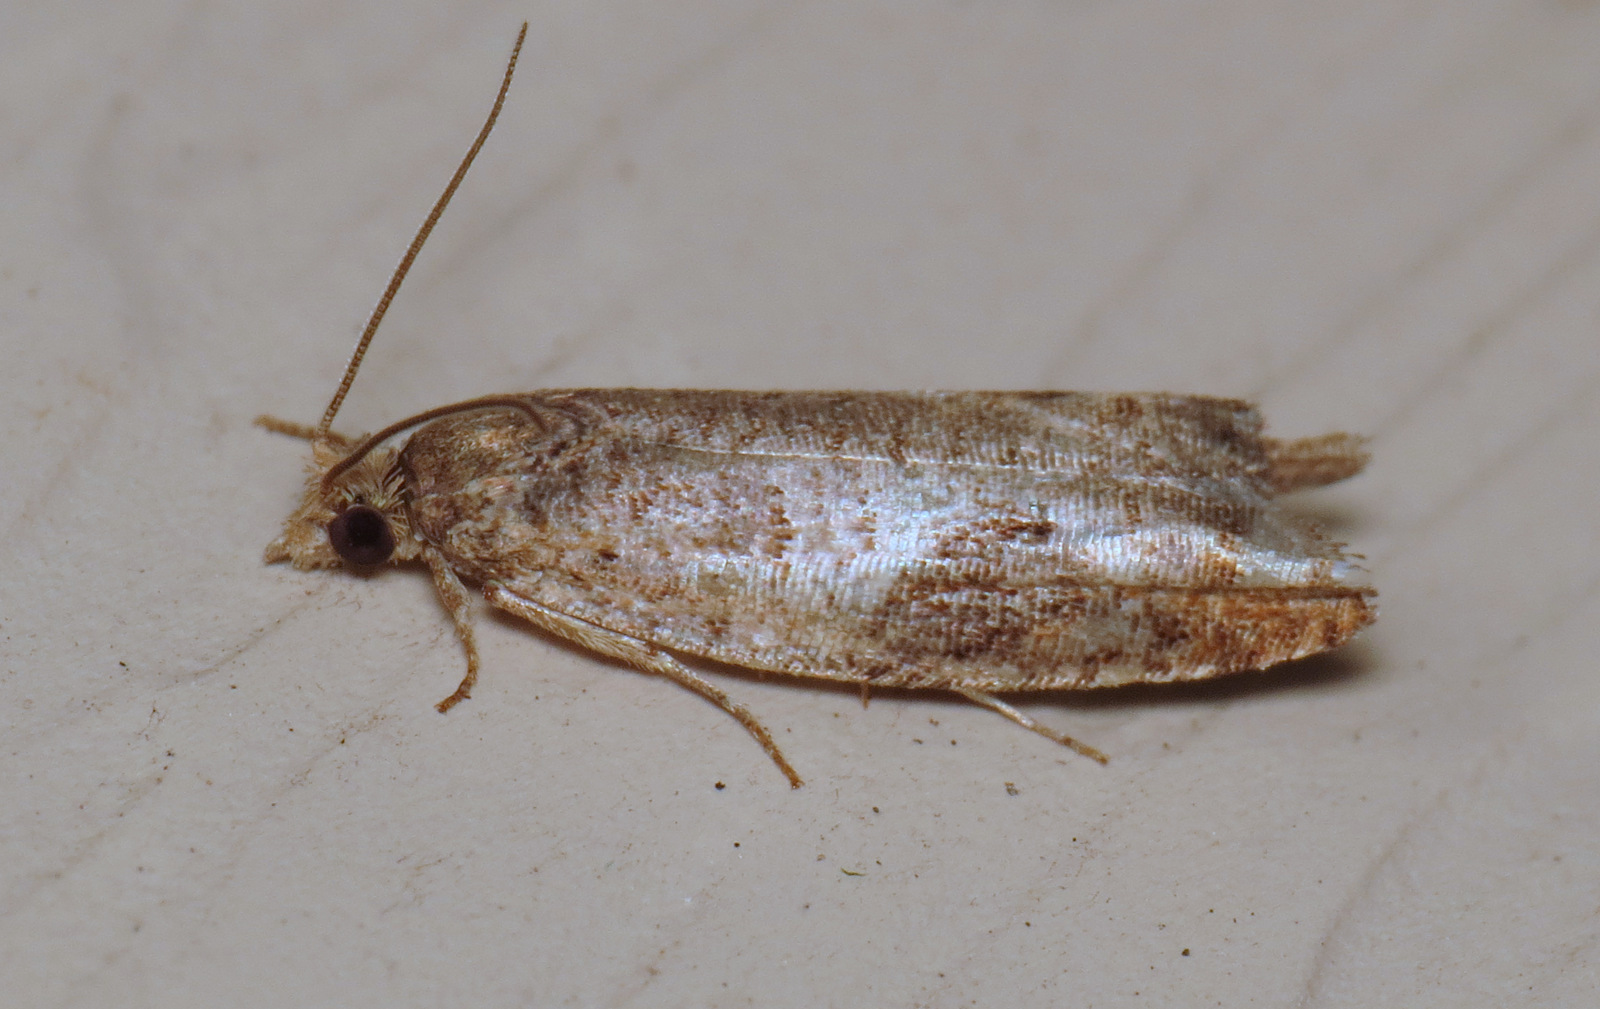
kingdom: Animalia
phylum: Arthropoda
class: Insecta
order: Lepidoptera
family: Tortricidae
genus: Pseudexentera
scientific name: Pseudexentera virginiana
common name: Virginia pseudexentera moth
